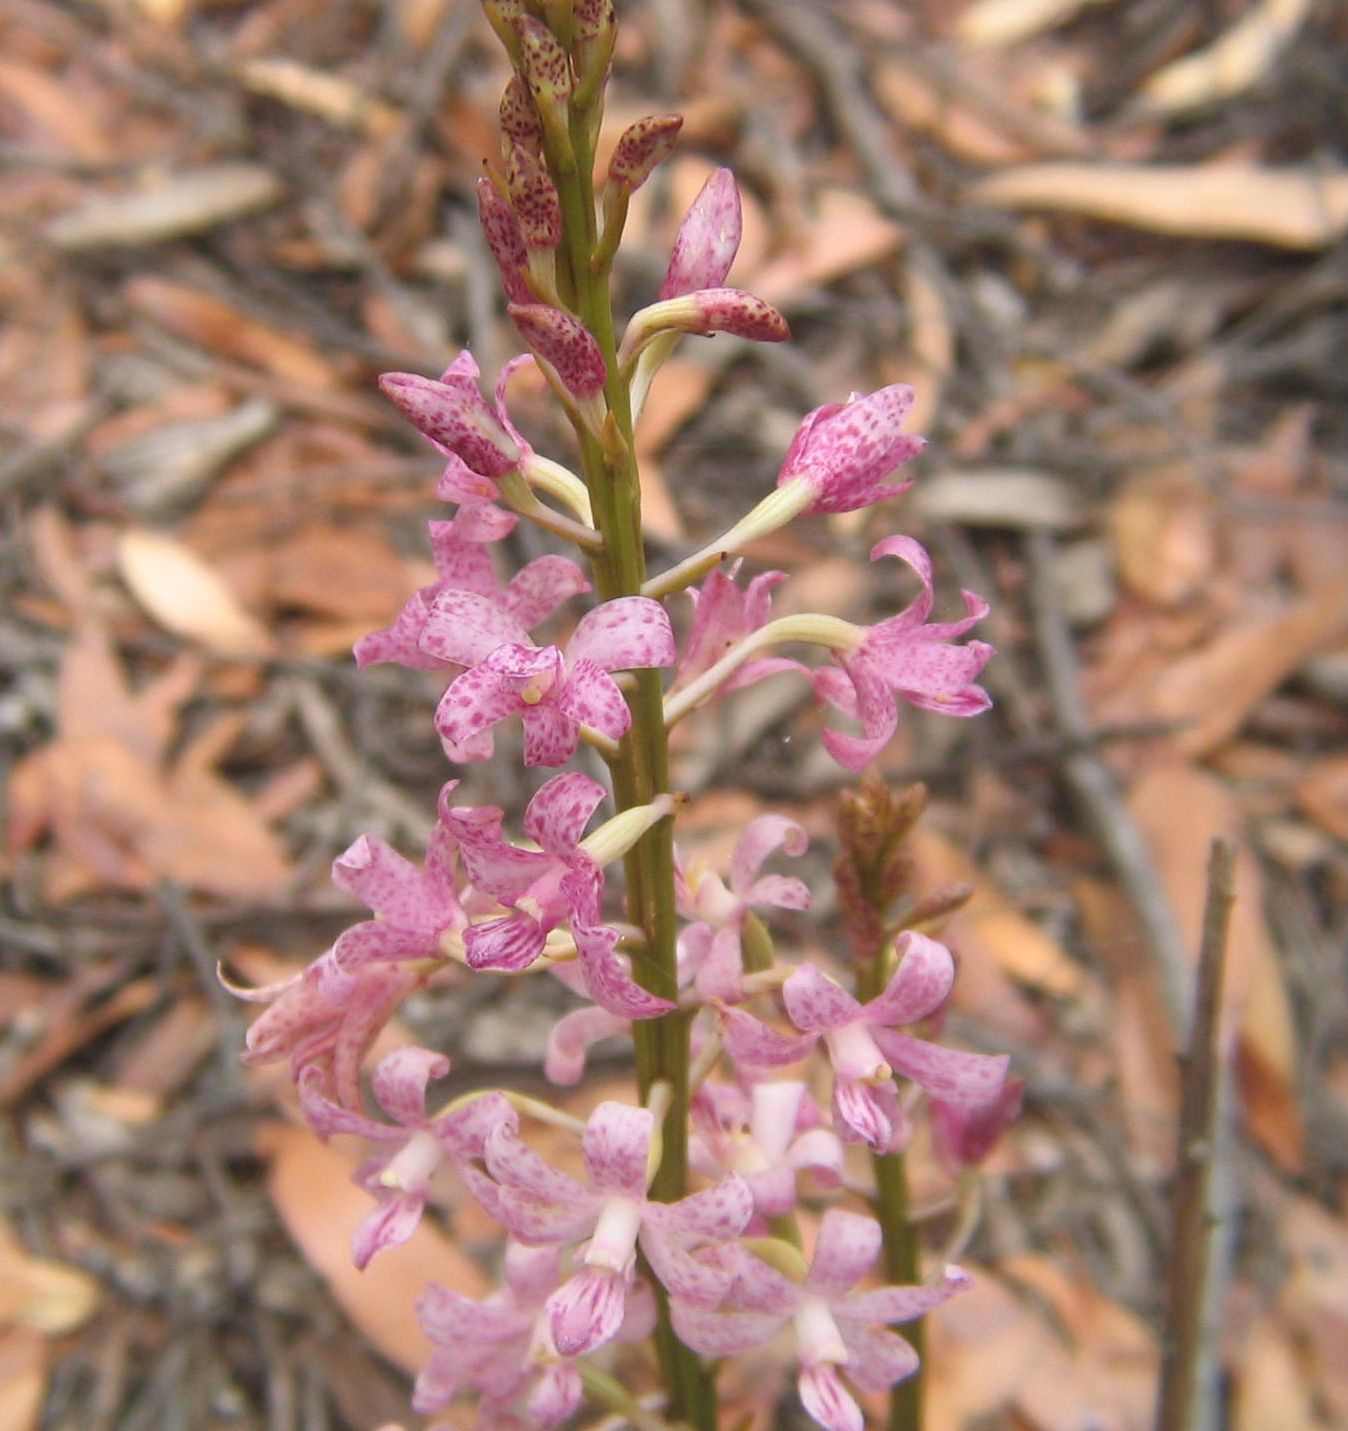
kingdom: Plantae
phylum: Tracheophyta
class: Liliopsida
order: Asparagales
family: Orchidaceae
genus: Dipodium
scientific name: Dipodium roseum
